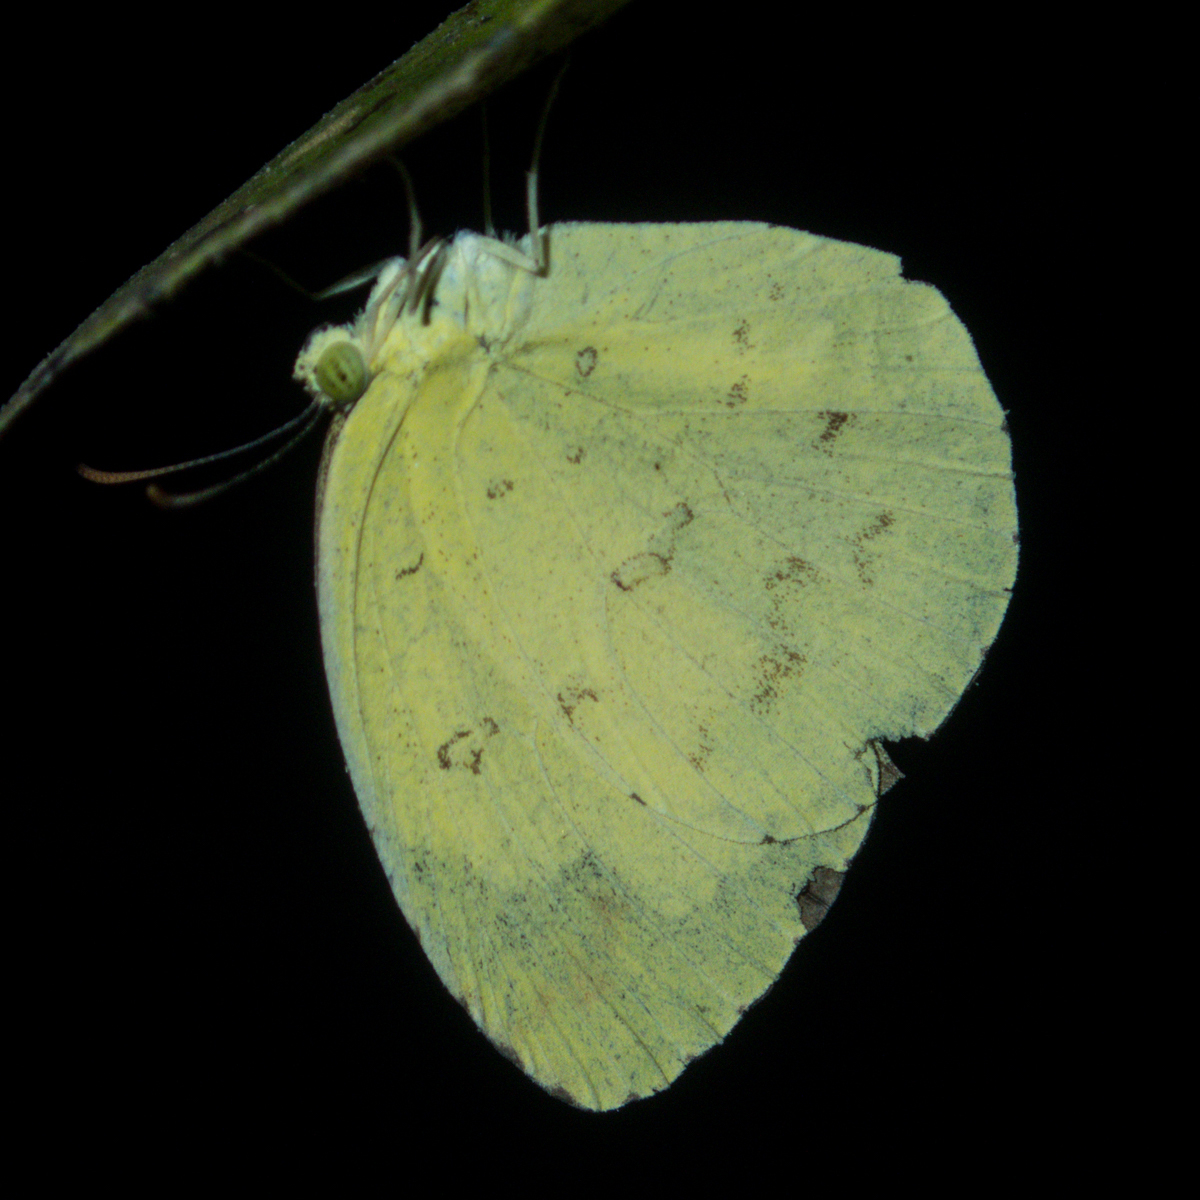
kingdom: Animalia
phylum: Arthropoda
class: Insecta
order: Lepidoptera
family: Pieridae
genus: Eurema
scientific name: Eurema hecabe
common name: Pale grass yellow
